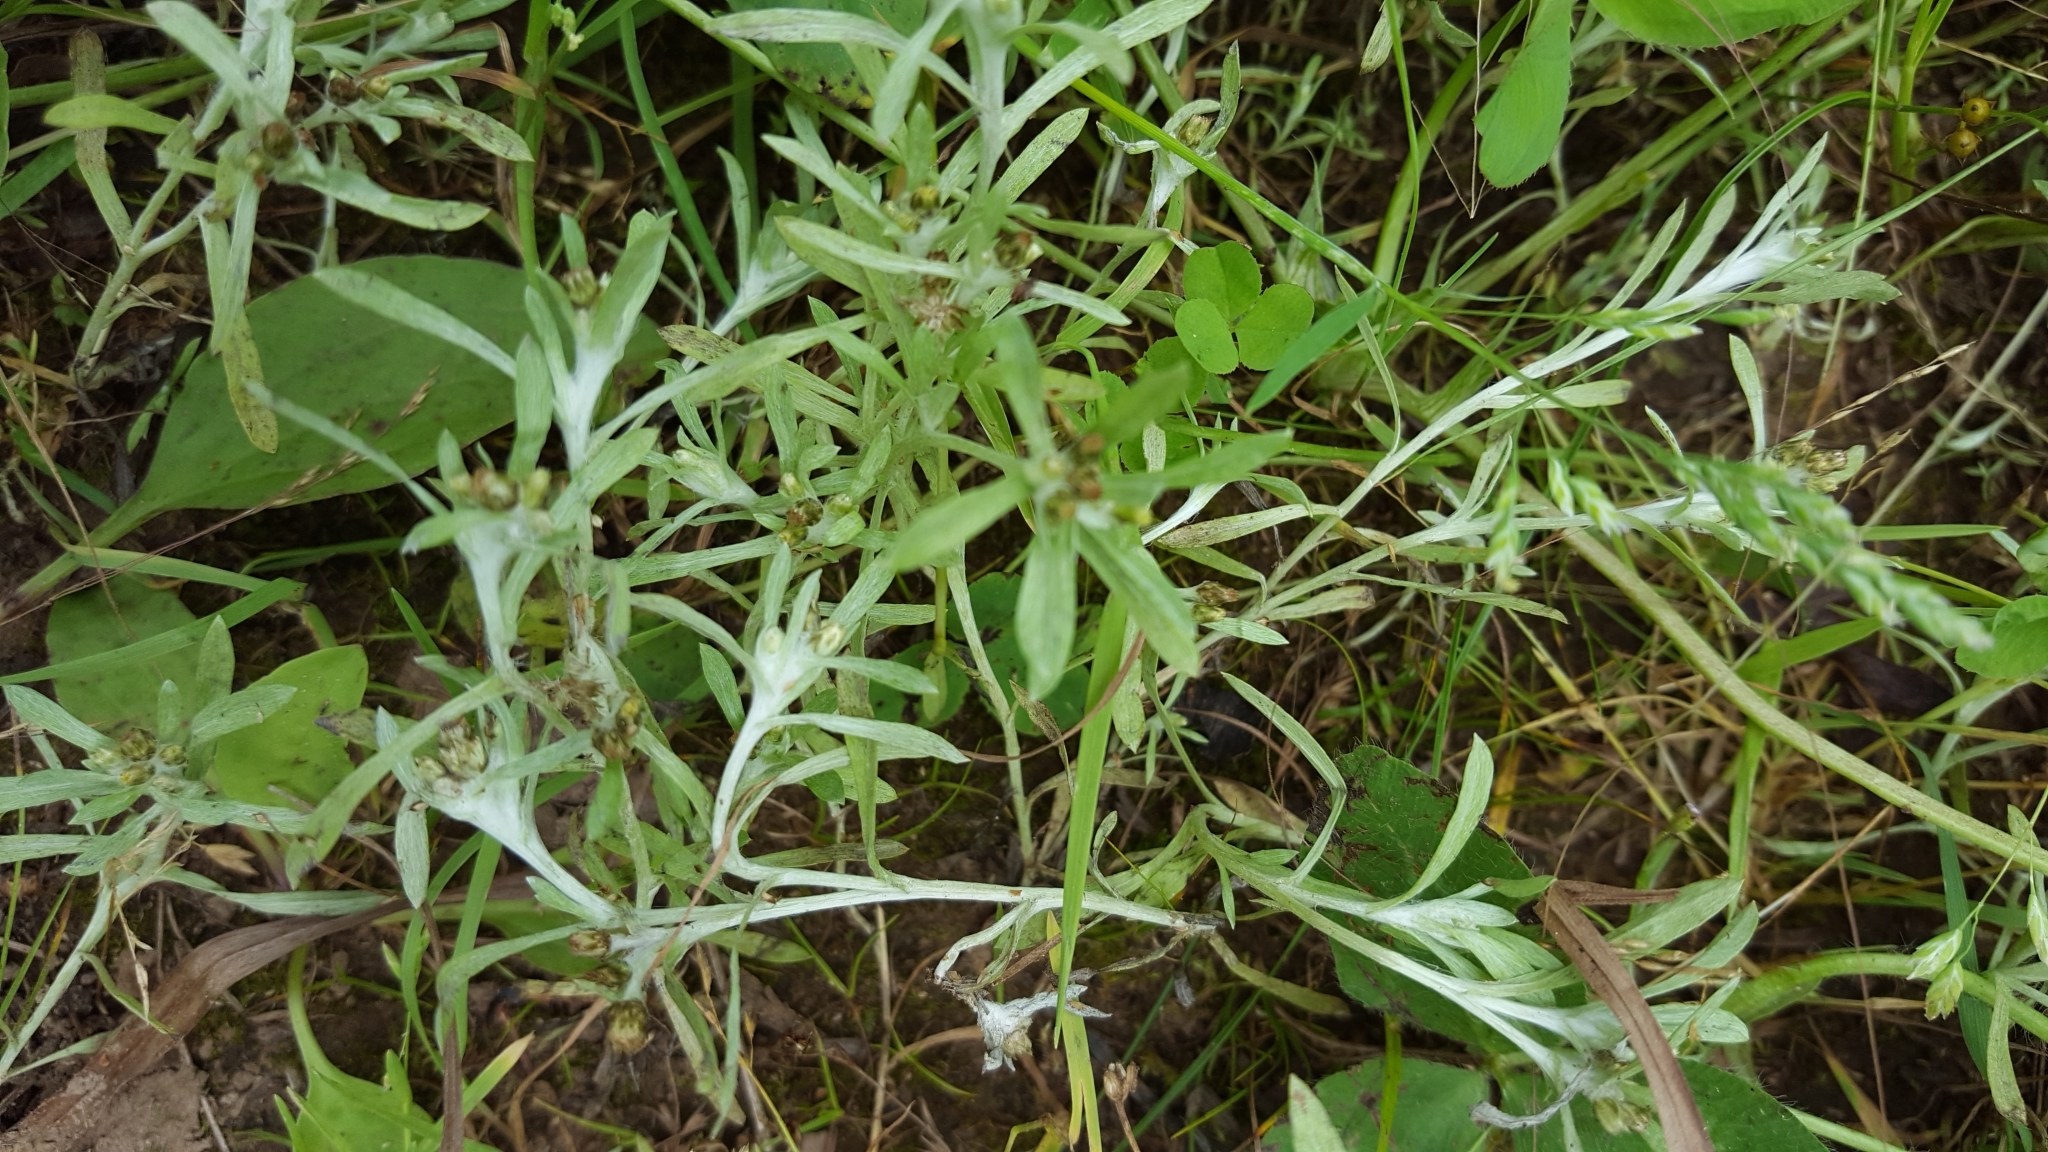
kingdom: Plantae
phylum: Tracheophyta
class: Magnoliopsida
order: Asterales
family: Asteraceae
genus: Gnaphalium
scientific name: Gnaphalium uliginosum
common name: Marsh cudweed
